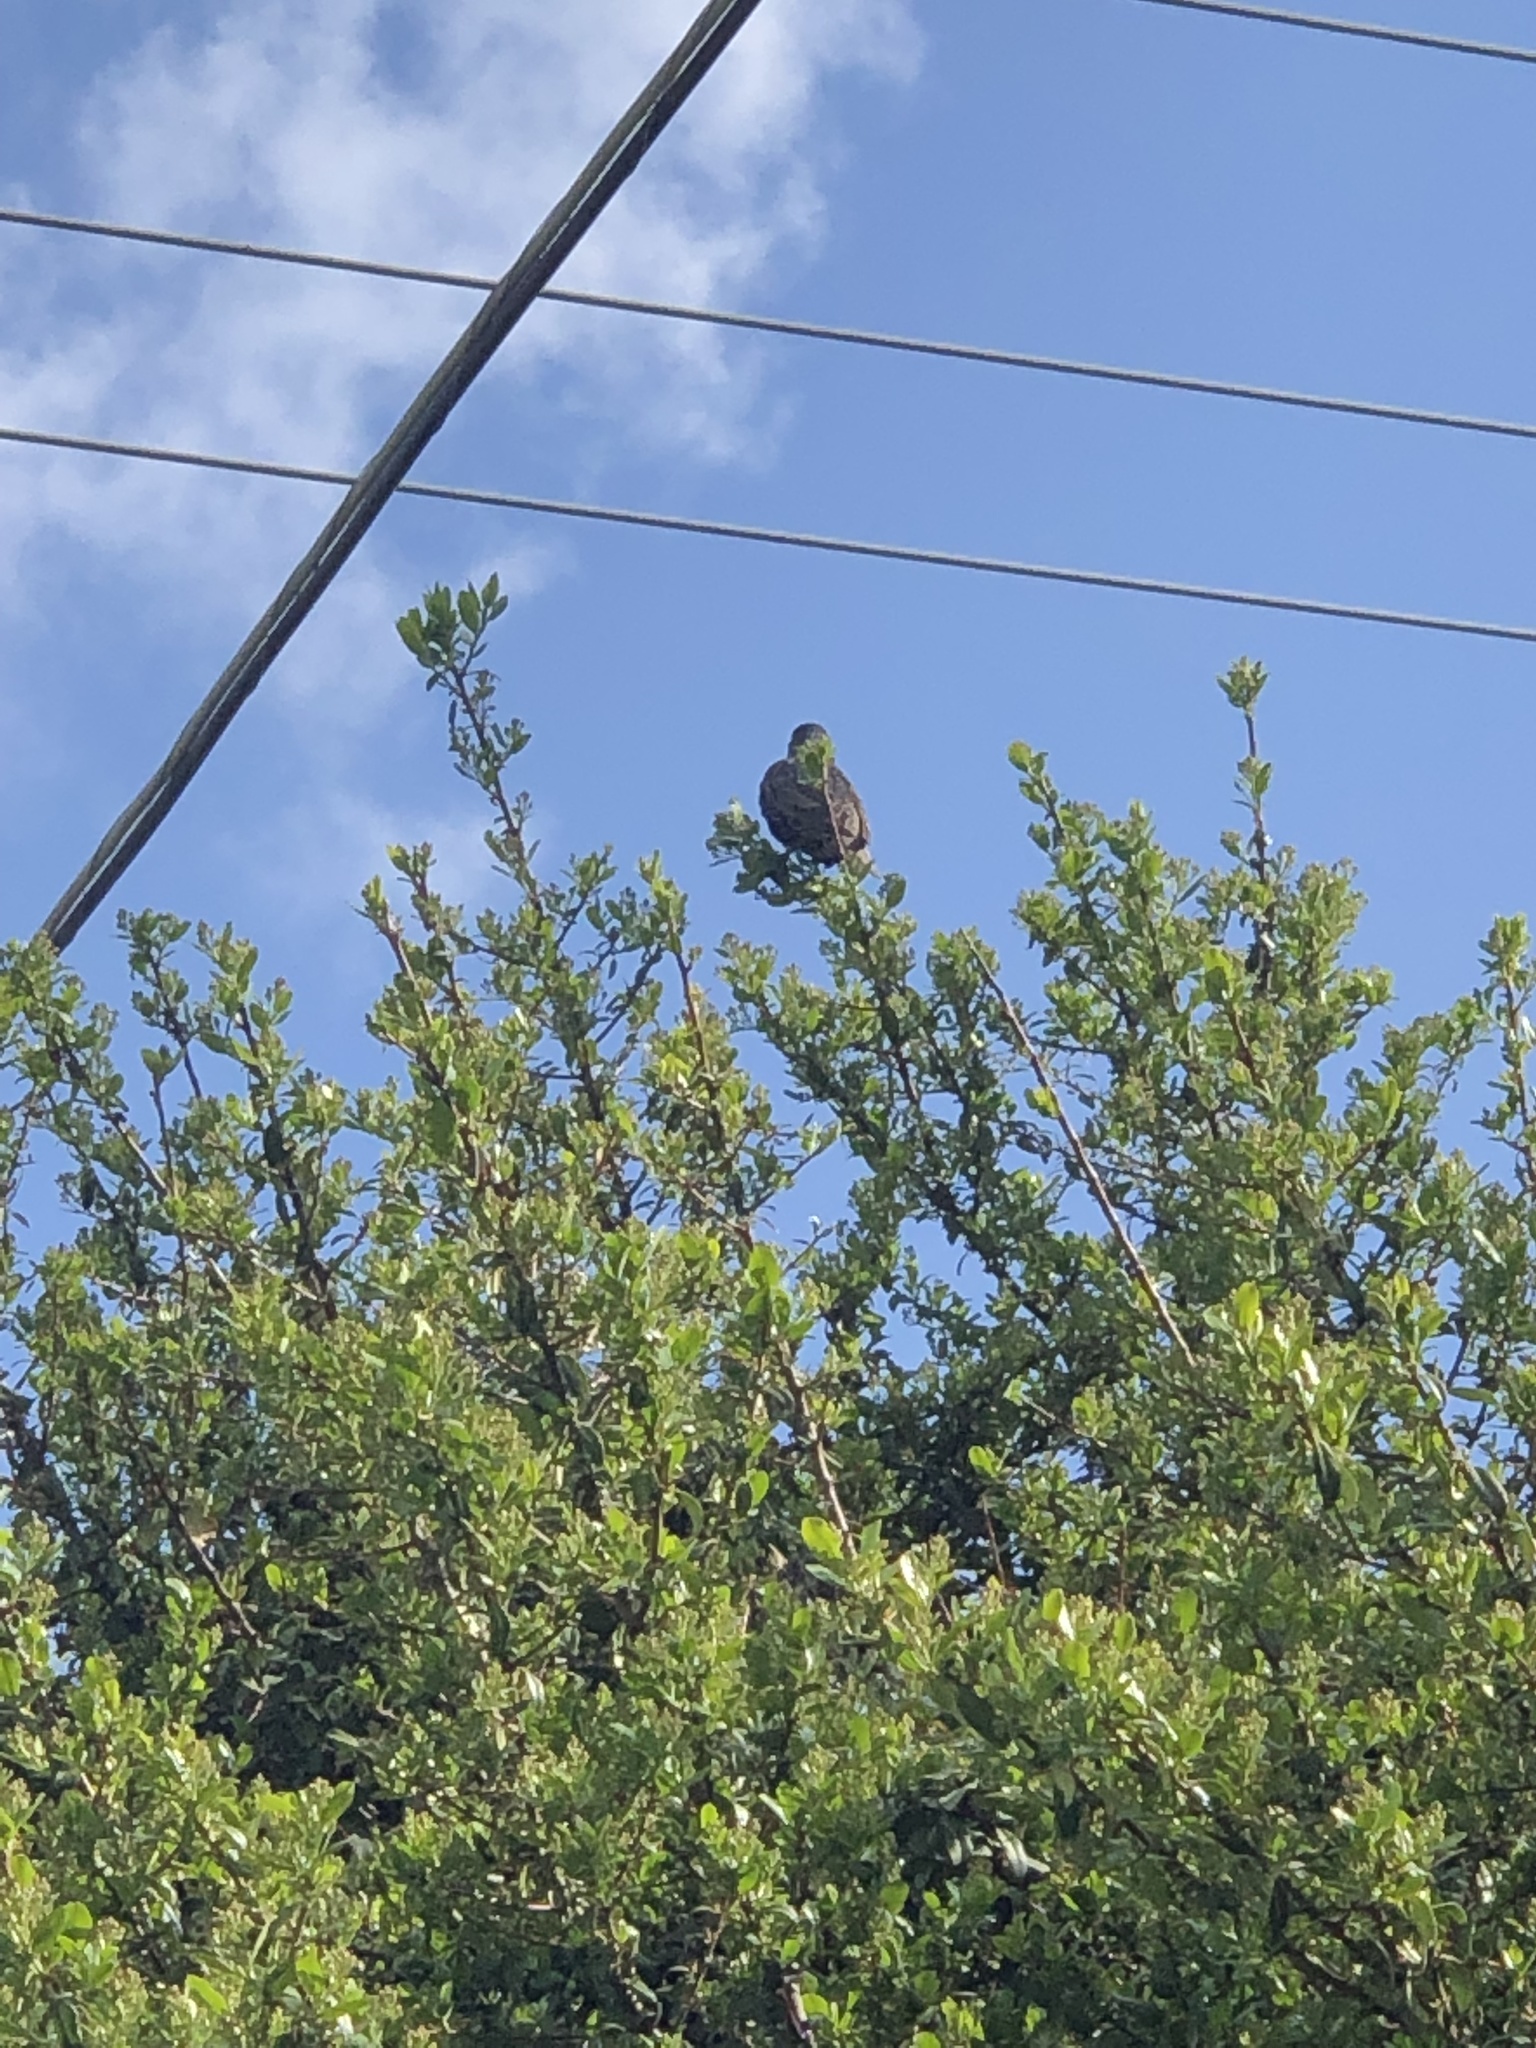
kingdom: Animalia
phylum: Chordata
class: Aves
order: Passeriformes
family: Sturnidae
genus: Sturnus
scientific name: Sturnus vulgaris
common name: Common starling
